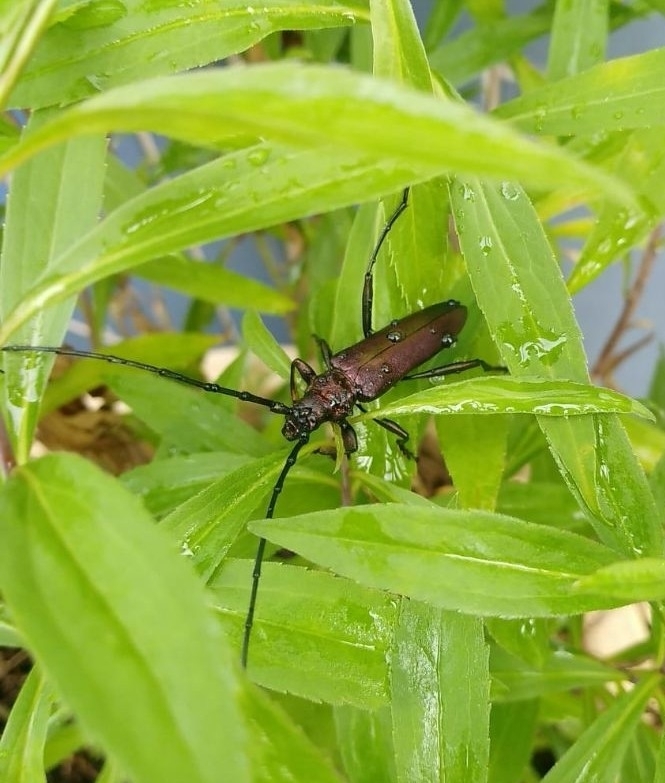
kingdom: Animalia
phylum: Arthropoda
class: Insecta
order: Coleoptera
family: Cerambycidae
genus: Aromia
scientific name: Aromia moschata
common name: Musk beetle
